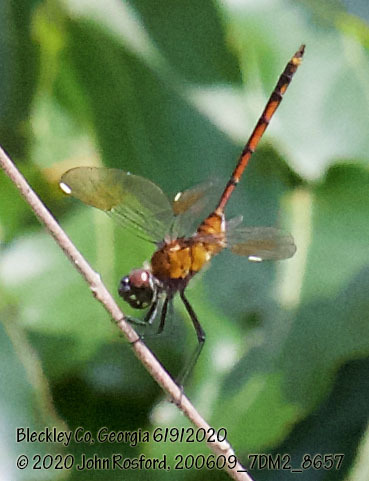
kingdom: Animalia
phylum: Arthropoda
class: Insecta
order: Odonata
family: Libellulidae
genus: Brachymesia
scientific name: Brachymesia gravida
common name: Four-spotted pennant
